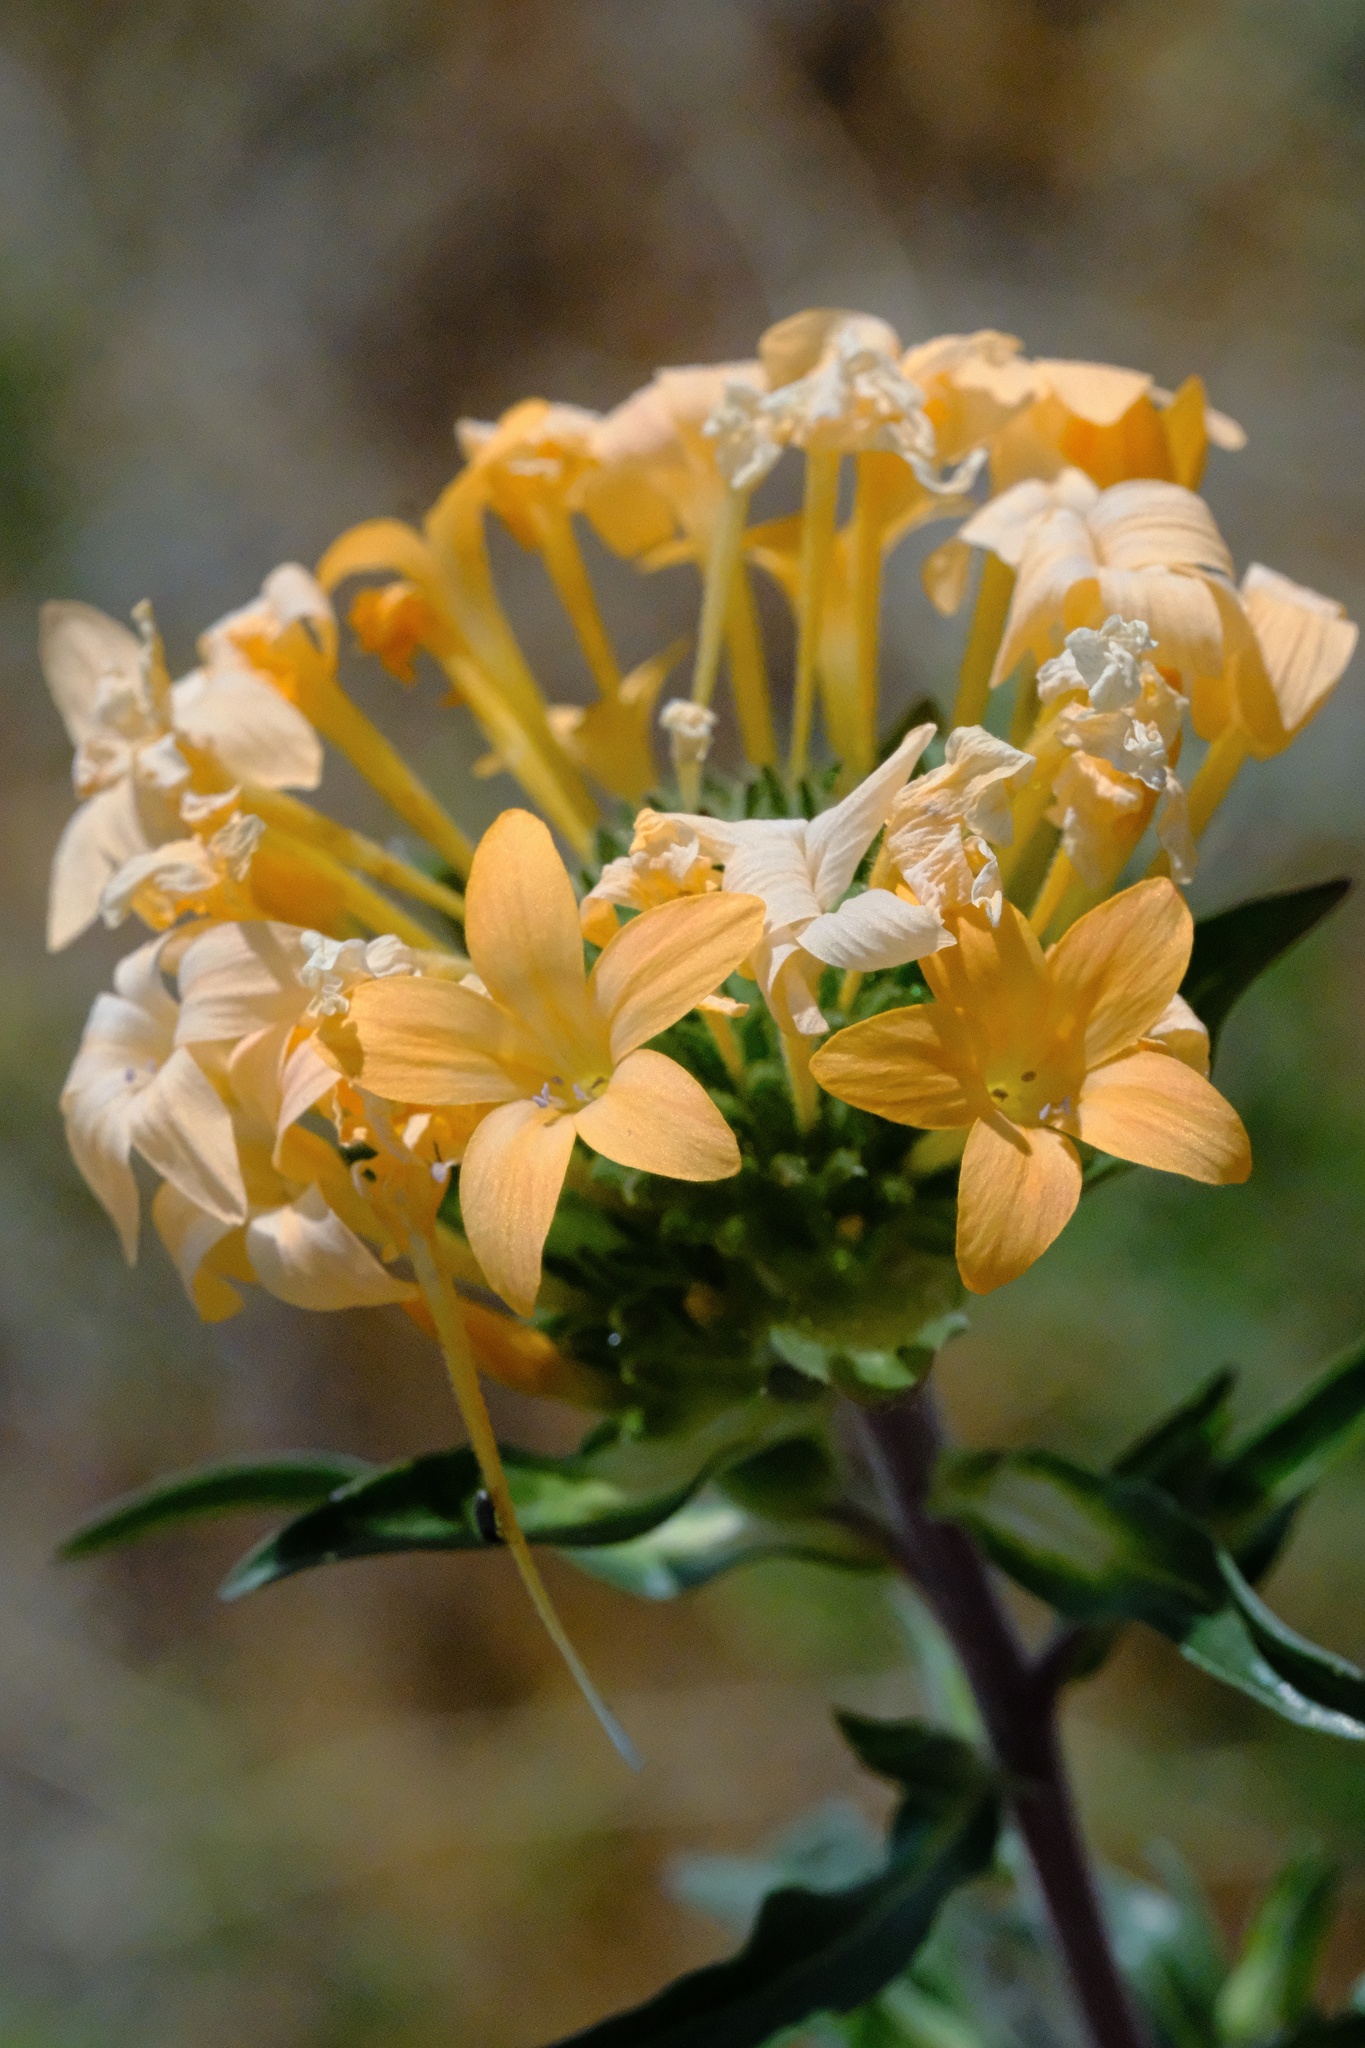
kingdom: Plantae
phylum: Tracheophyta
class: Magnoliopsida
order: Ericales
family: Polemoniaceae
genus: Collomia
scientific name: Collomia grandiflora
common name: California strawflower
